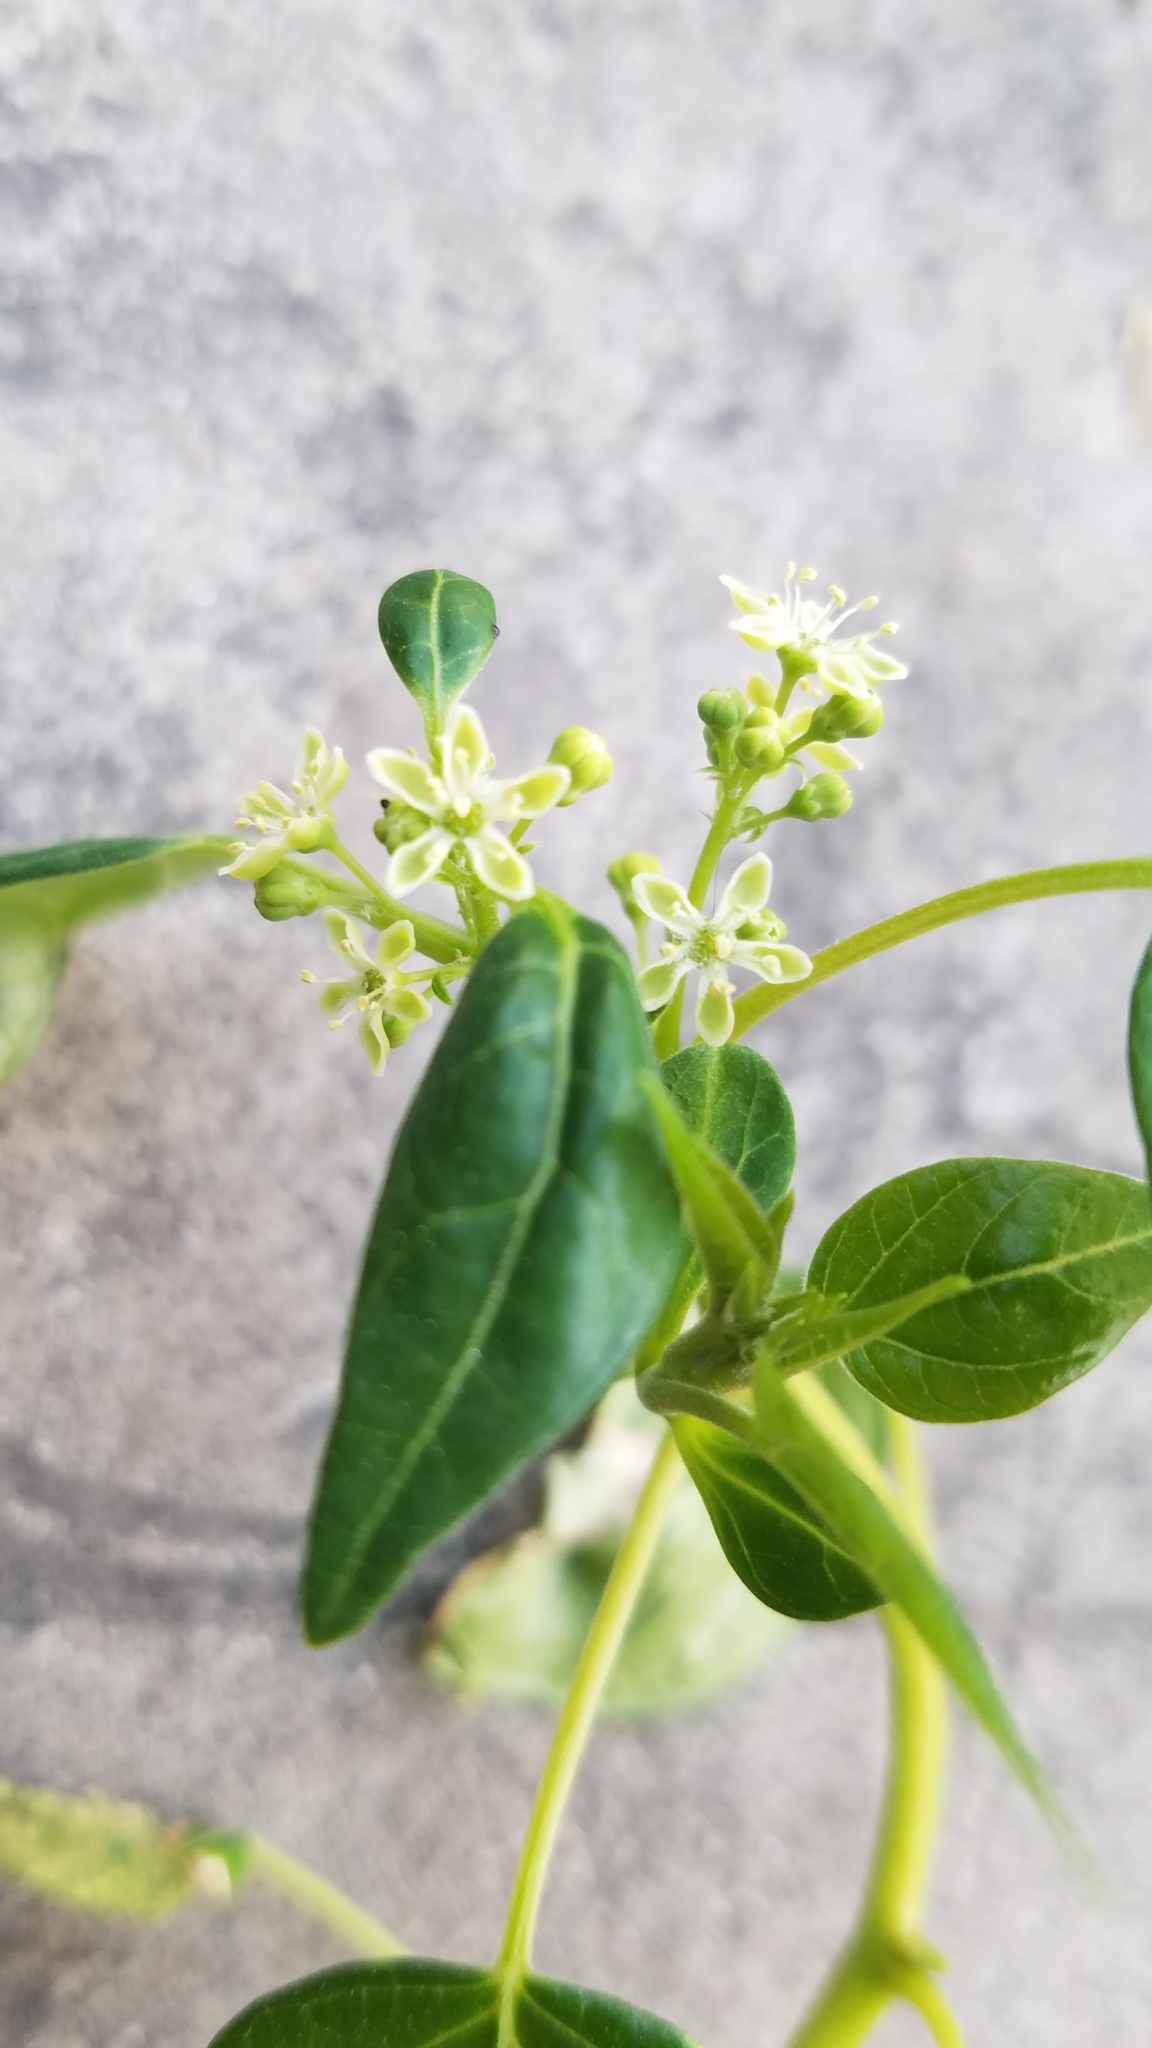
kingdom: Plantae
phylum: Tracheophyta
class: Magnoliopsida
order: Sapindales
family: Simaroubaceae
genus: Ailanthus
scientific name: Ailanthus altissima
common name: Tree-of-heaven
